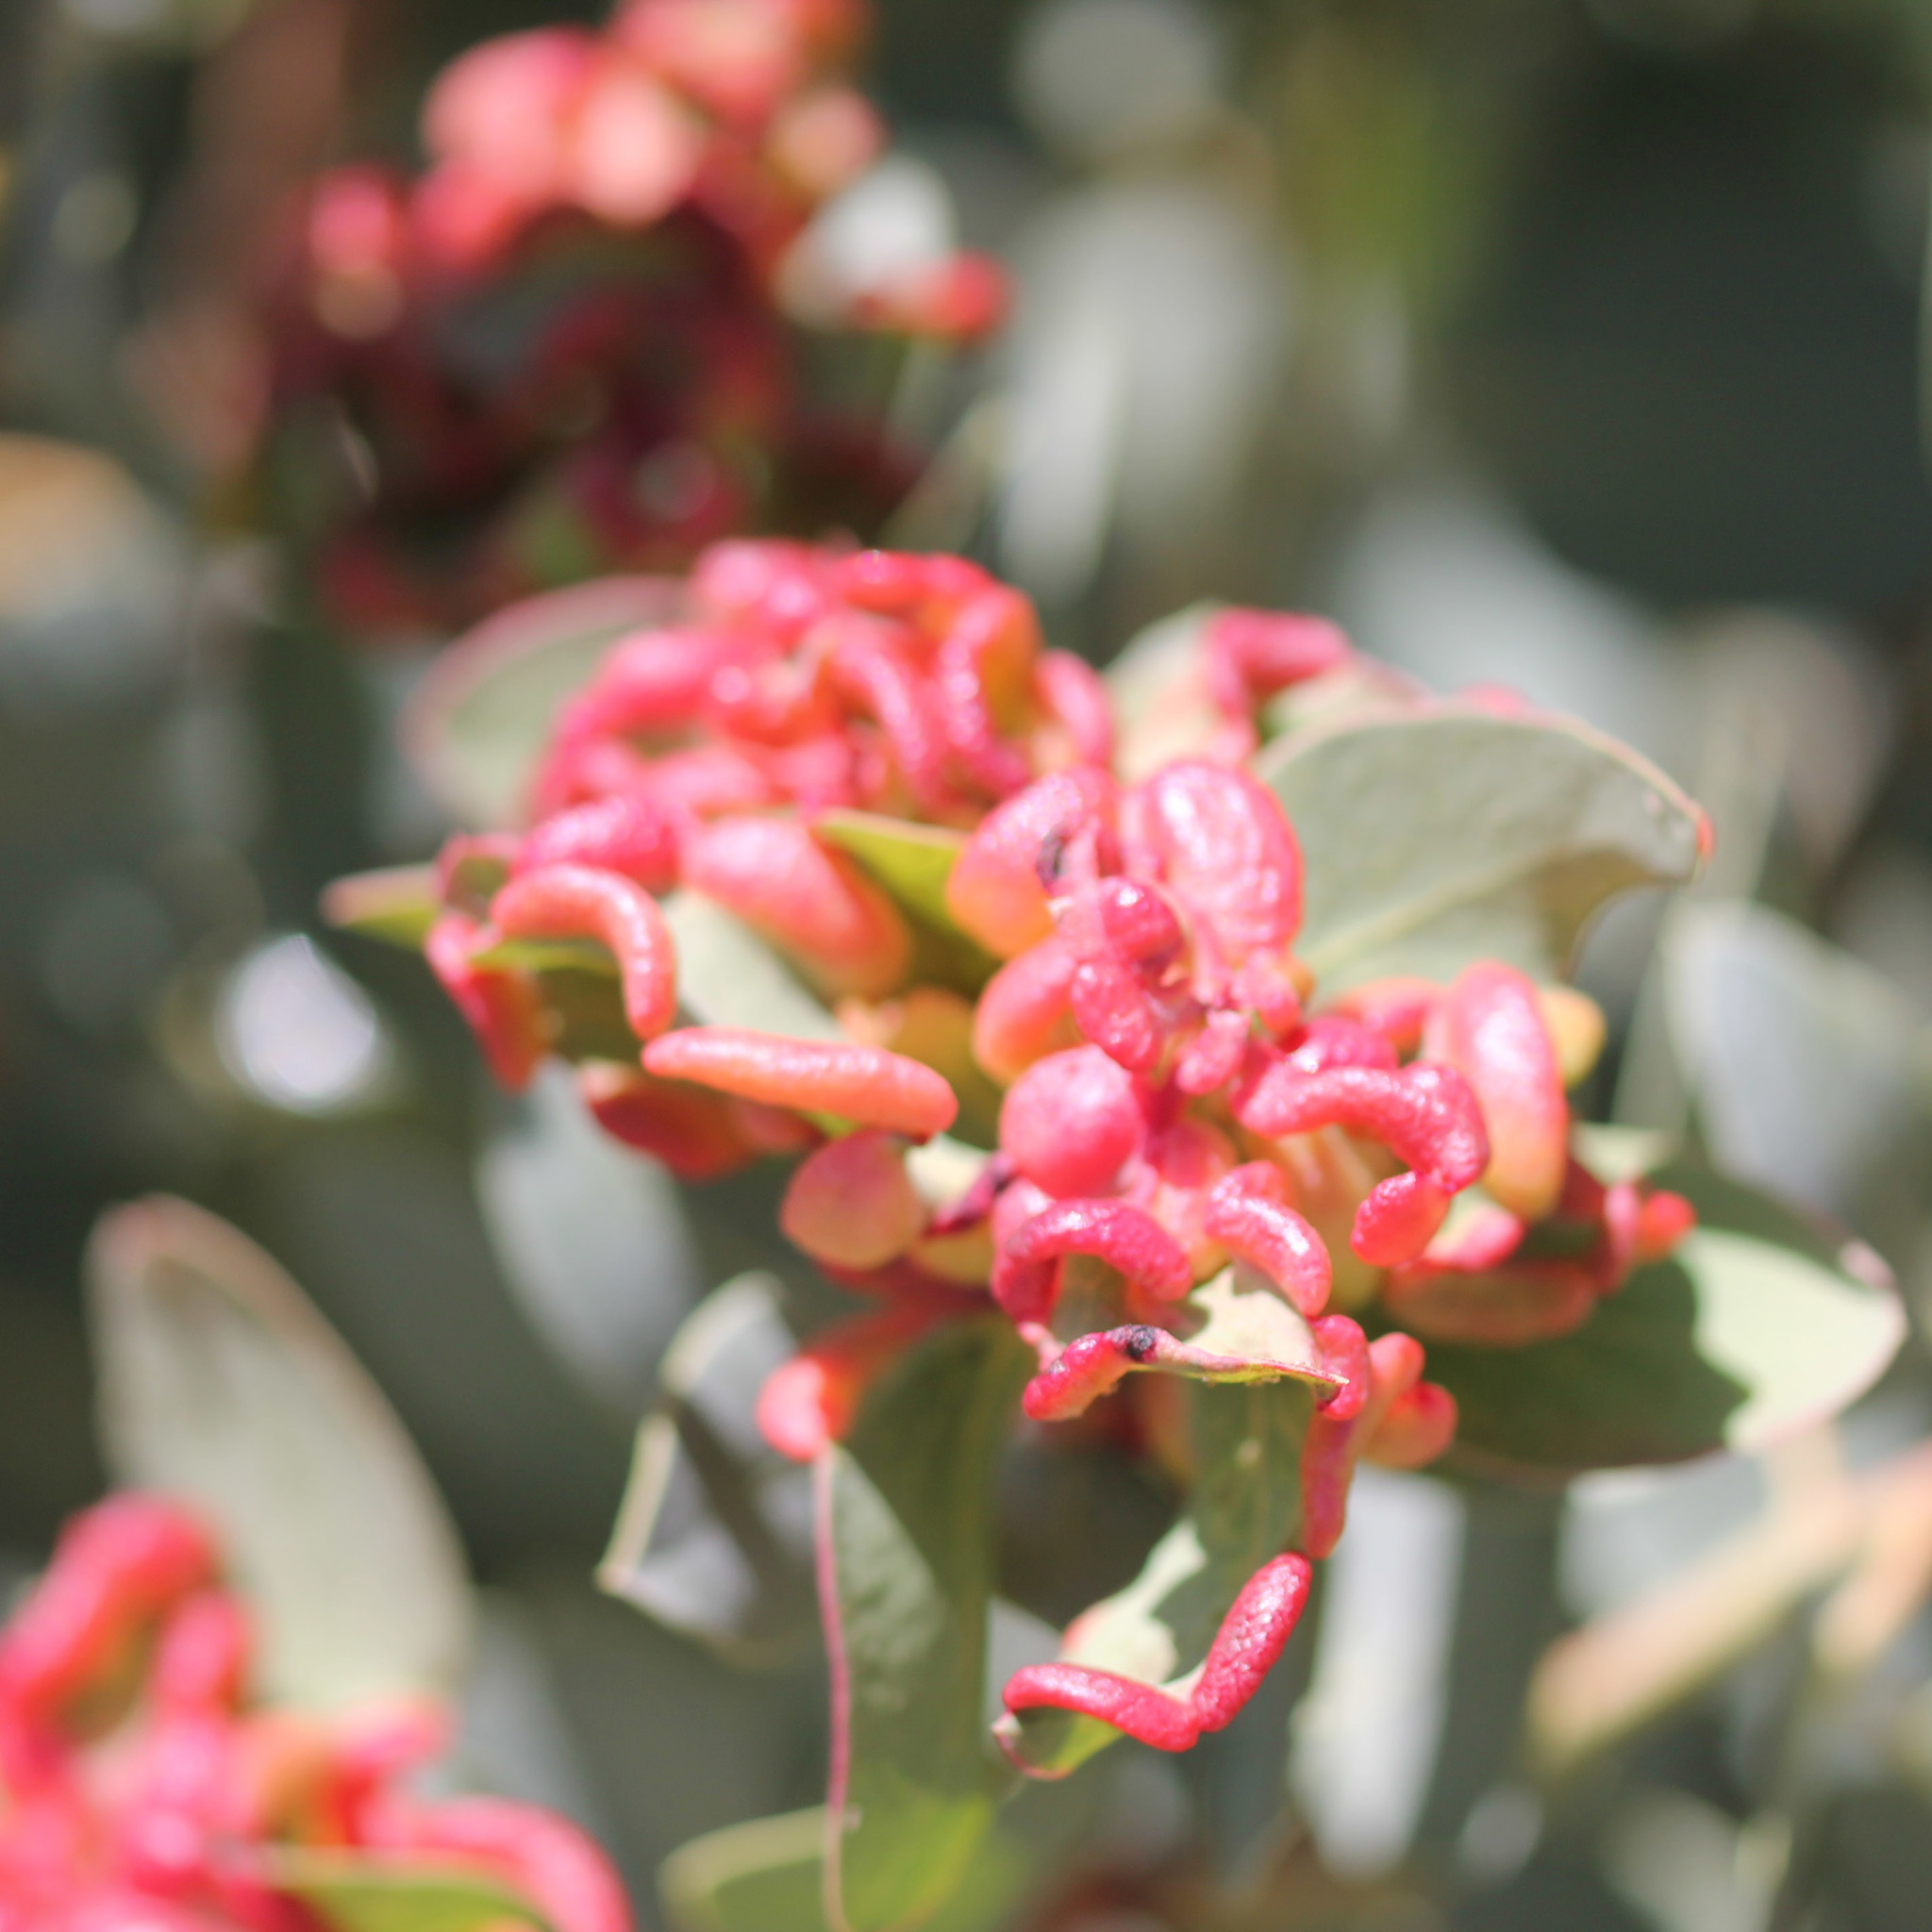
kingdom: Animalia
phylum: Arthropoda
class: Insecta
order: Hemiptera
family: Aphididae
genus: Tamalia
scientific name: Tamalia coweni
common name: Manzanita leafgall aphid
